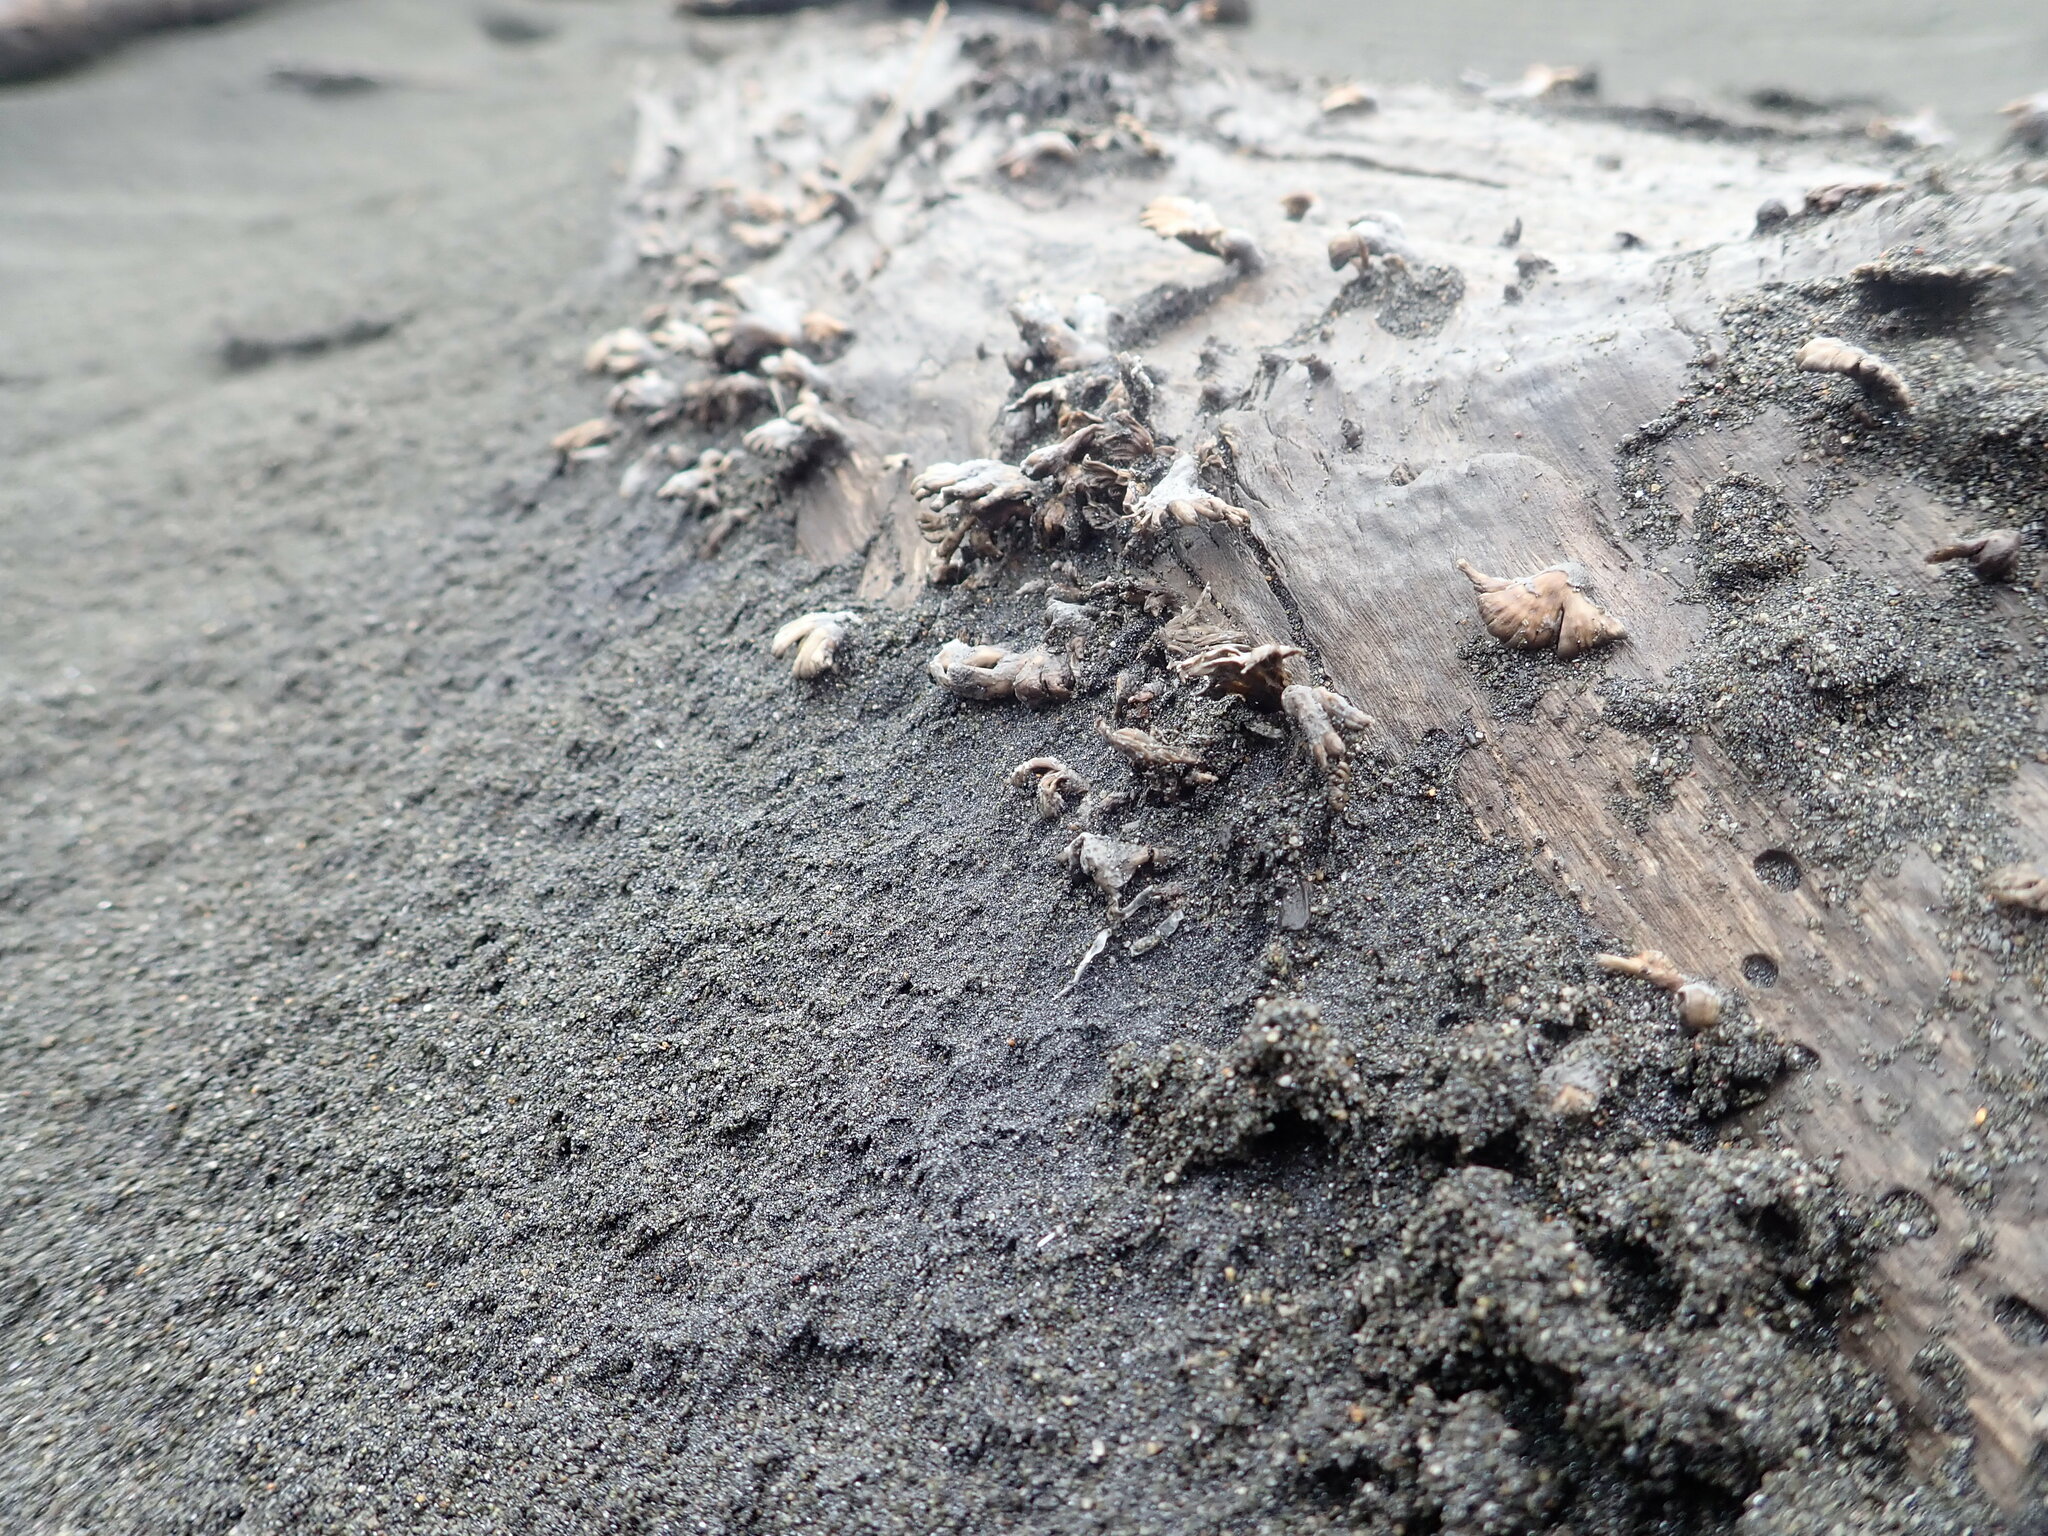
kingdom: Fungi
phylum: Basidiomycota
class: Agaricomycetes
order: Agaricales
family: Schizophyllaceae
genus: Schizophyllum
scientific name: Schizophyllum commune
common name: Common porecrust
